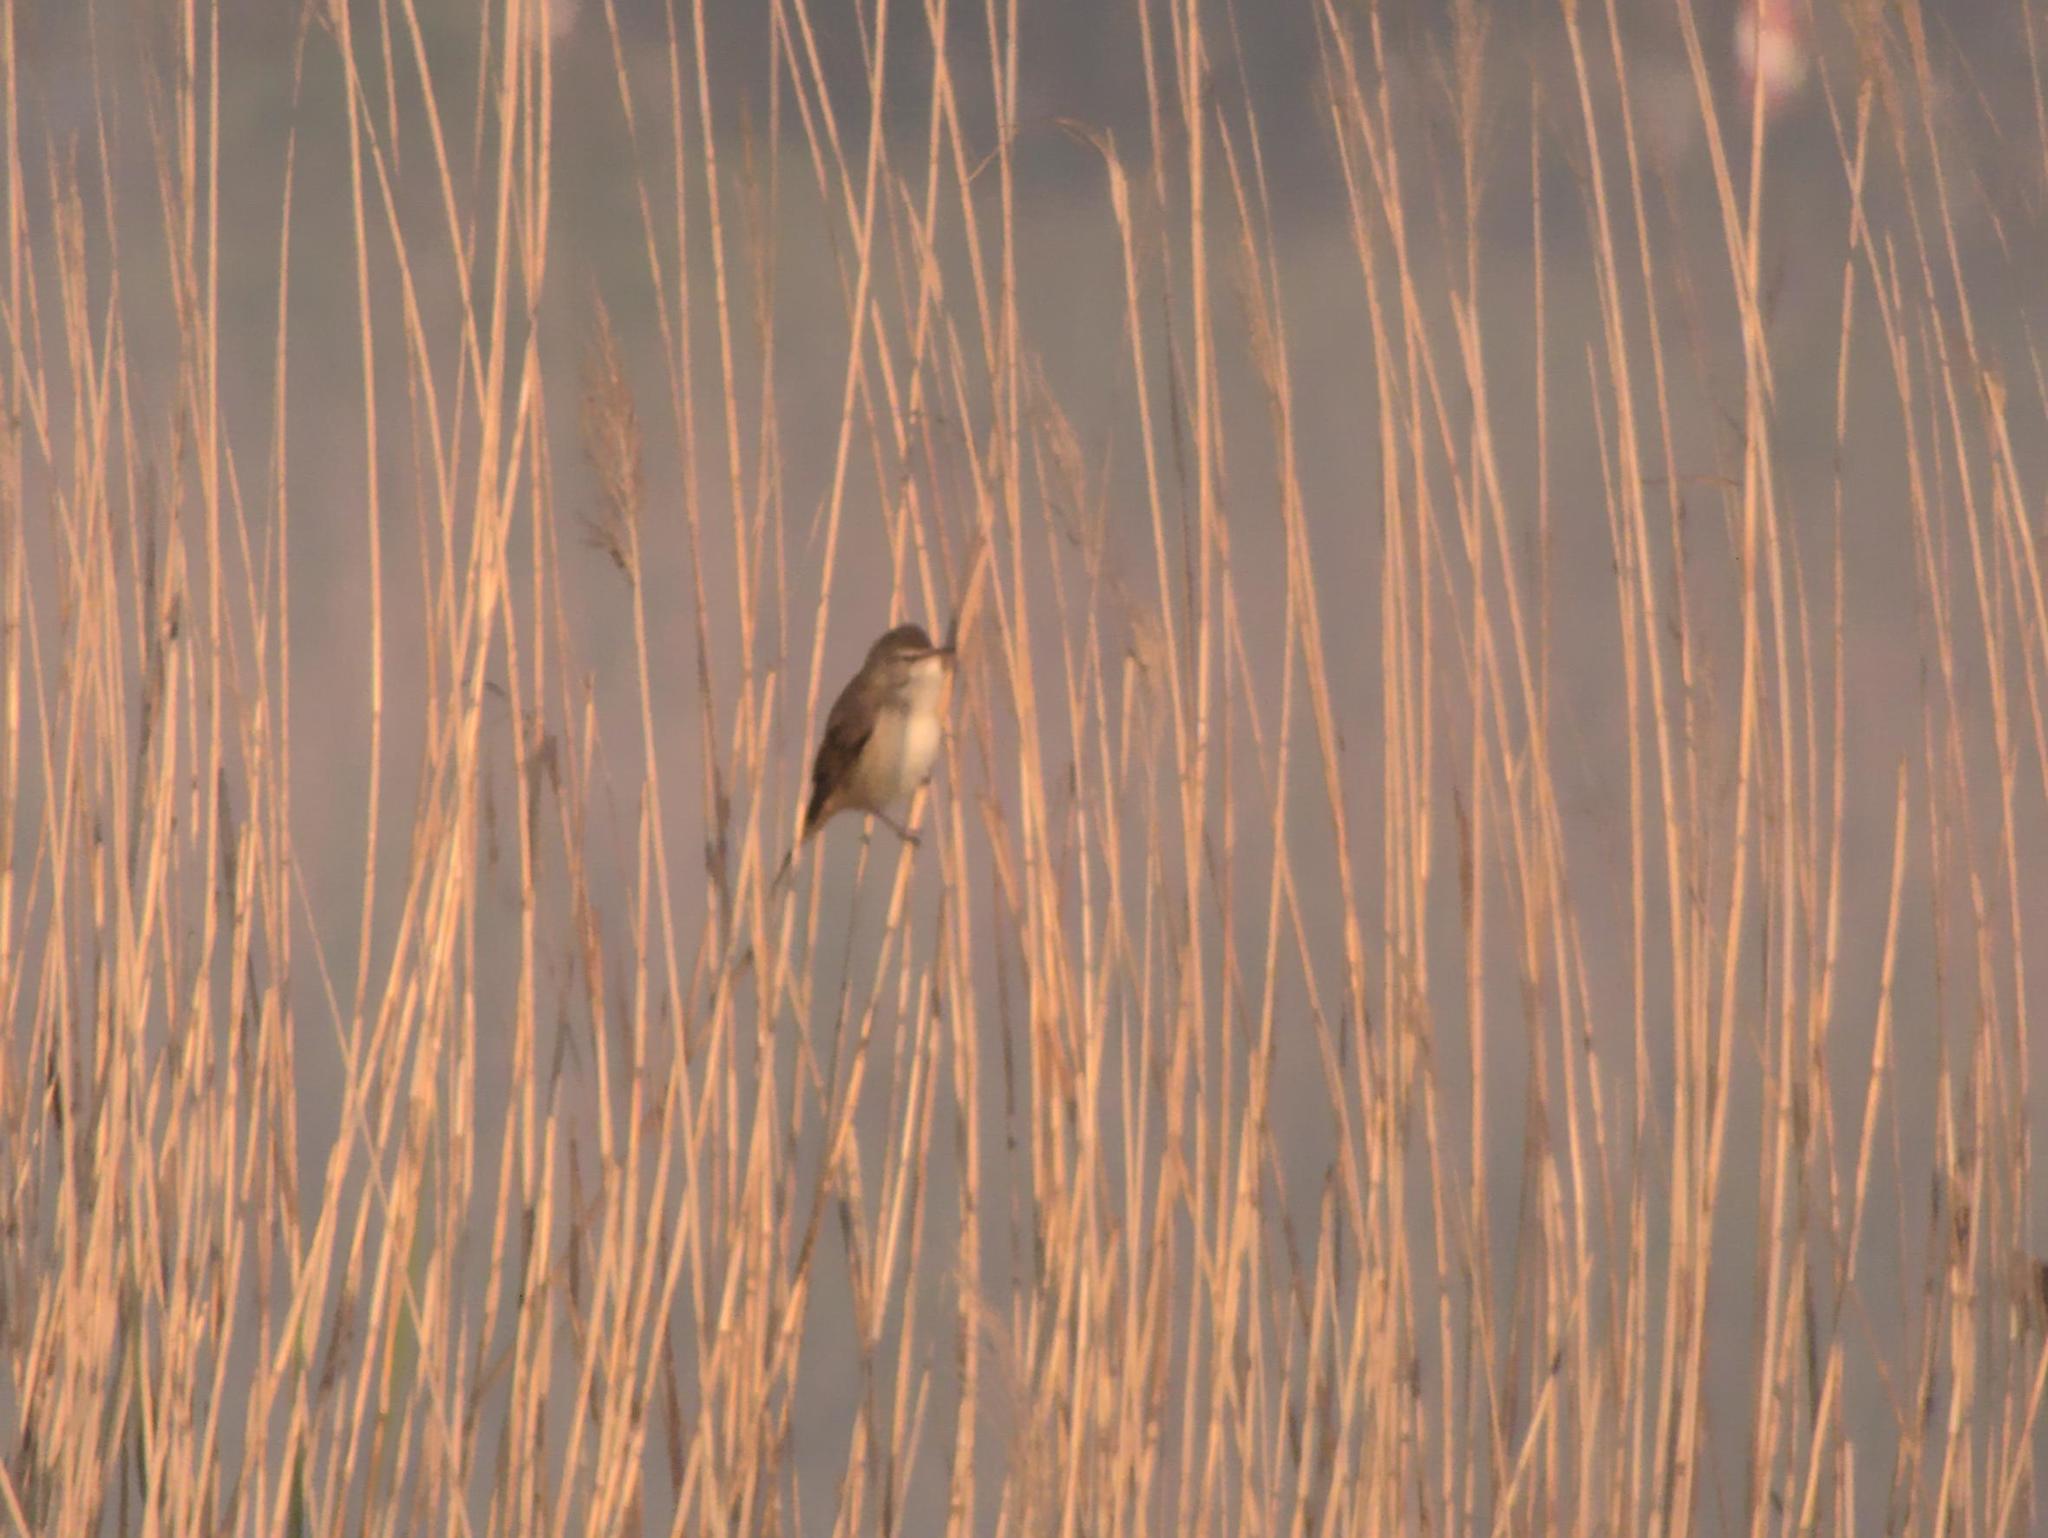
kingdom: Animalia
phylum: Chordata
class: Aves
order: Passeriformes
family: Acrocephalidae
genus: Acrocephalus
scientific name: Acrocephalus arundinaceus
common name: Great reed warbler
